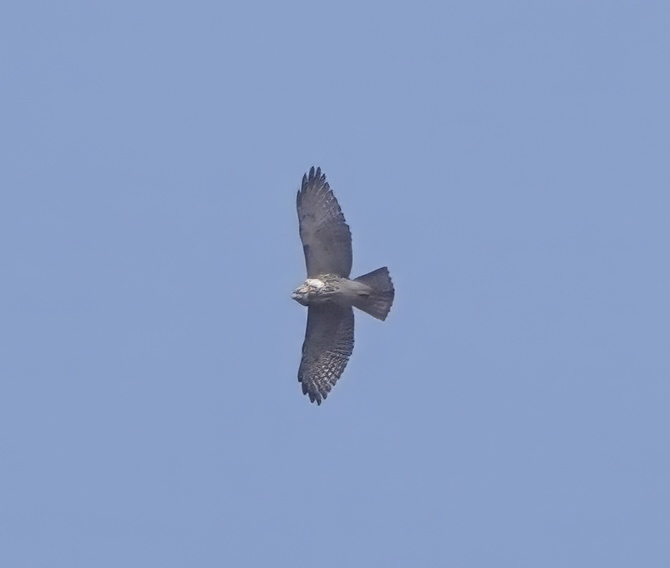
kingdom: Animalia
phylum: Chordata
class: Aves
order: Accipitriformes
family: Accipitridae
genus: Buteo
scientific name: Buteo platypterus
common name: Broad-winged hawk
